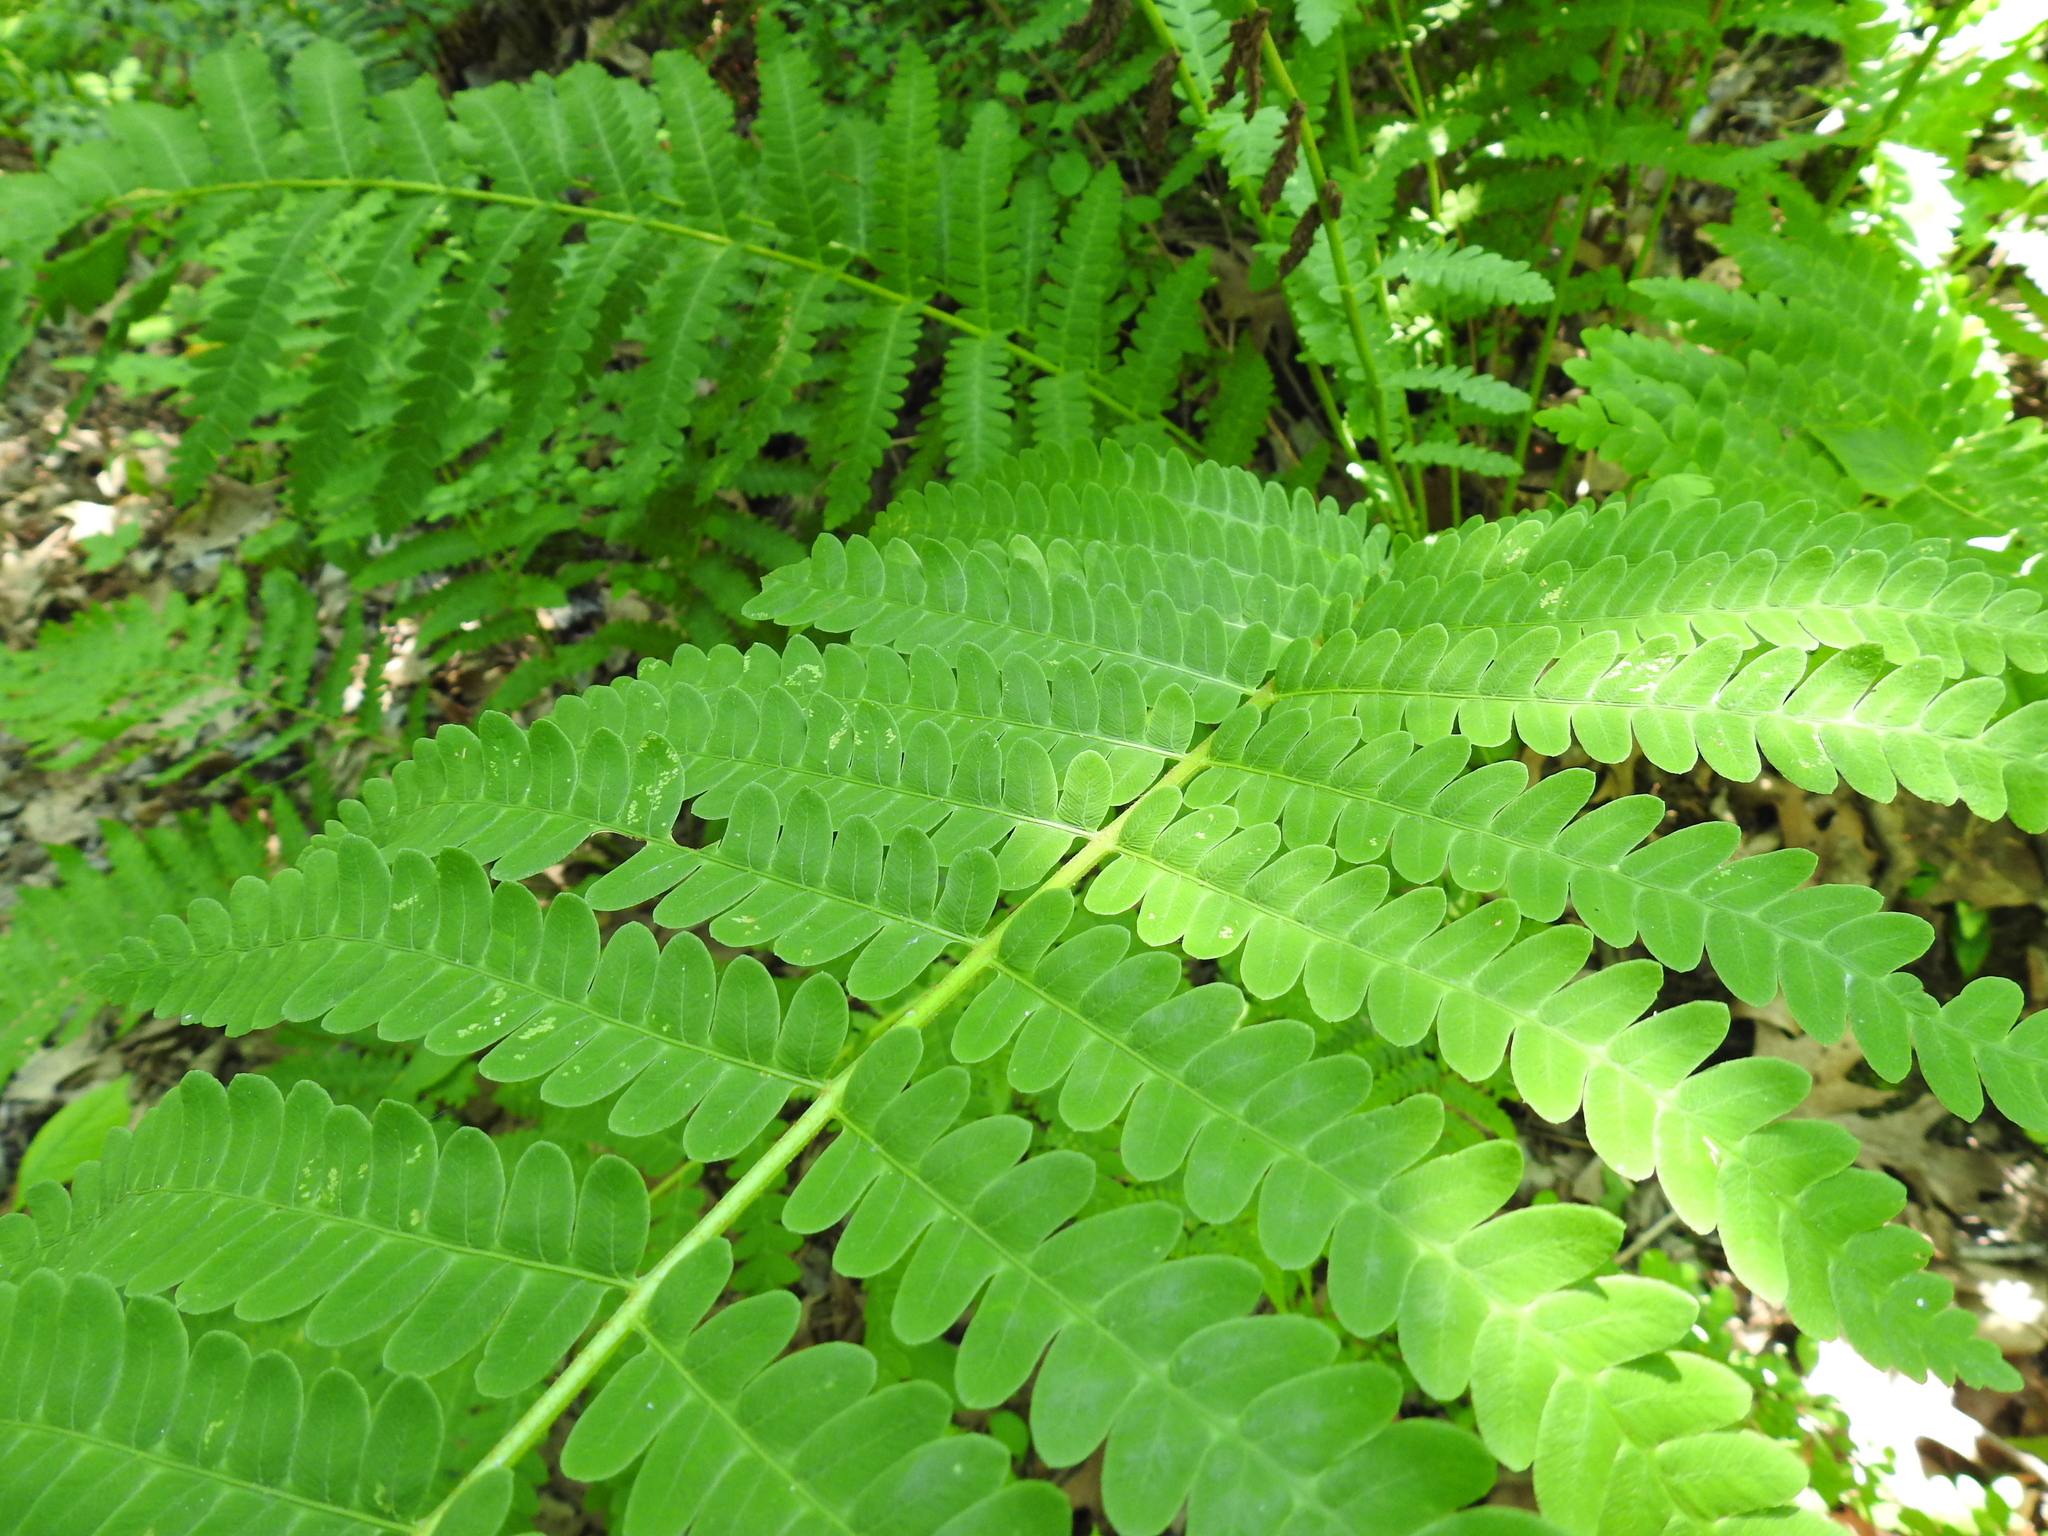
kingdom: Plantae
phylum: Tracheophyta
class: Polypodiopsida
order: Osmundales
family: Osmundaceae
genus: Claytosmunda
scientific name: Claytosmunda claytoniana
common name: Clayton's fern
